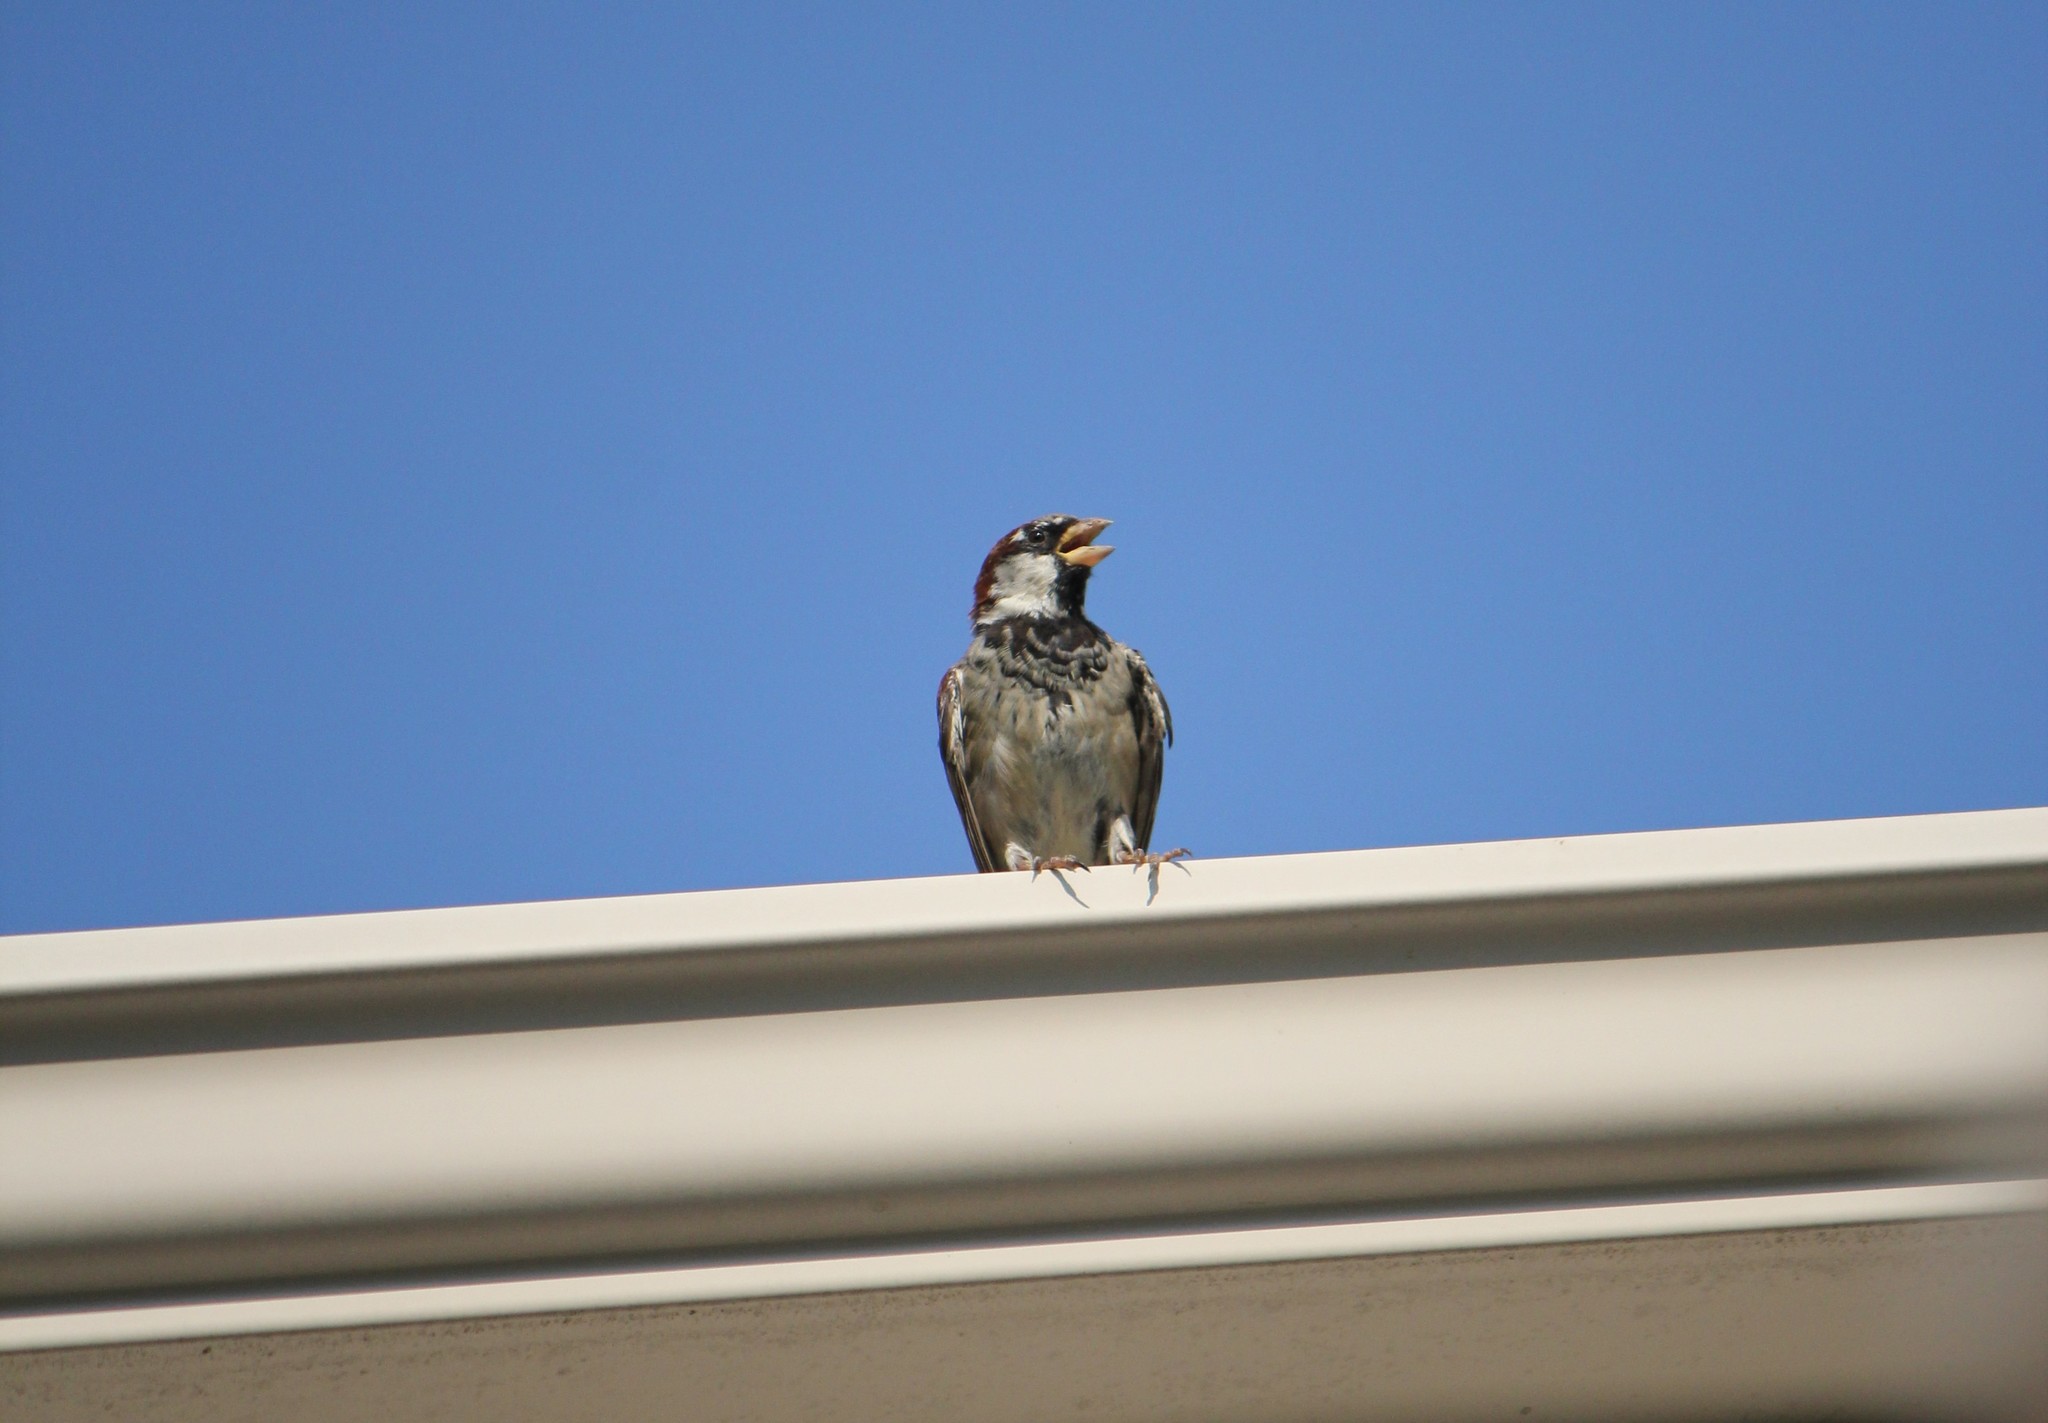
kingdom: Animalia
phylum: Chordata
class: Aves
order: Passeriformes
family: Passeridae
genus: Passer
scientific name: Passer domesticus
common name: House sparrow
